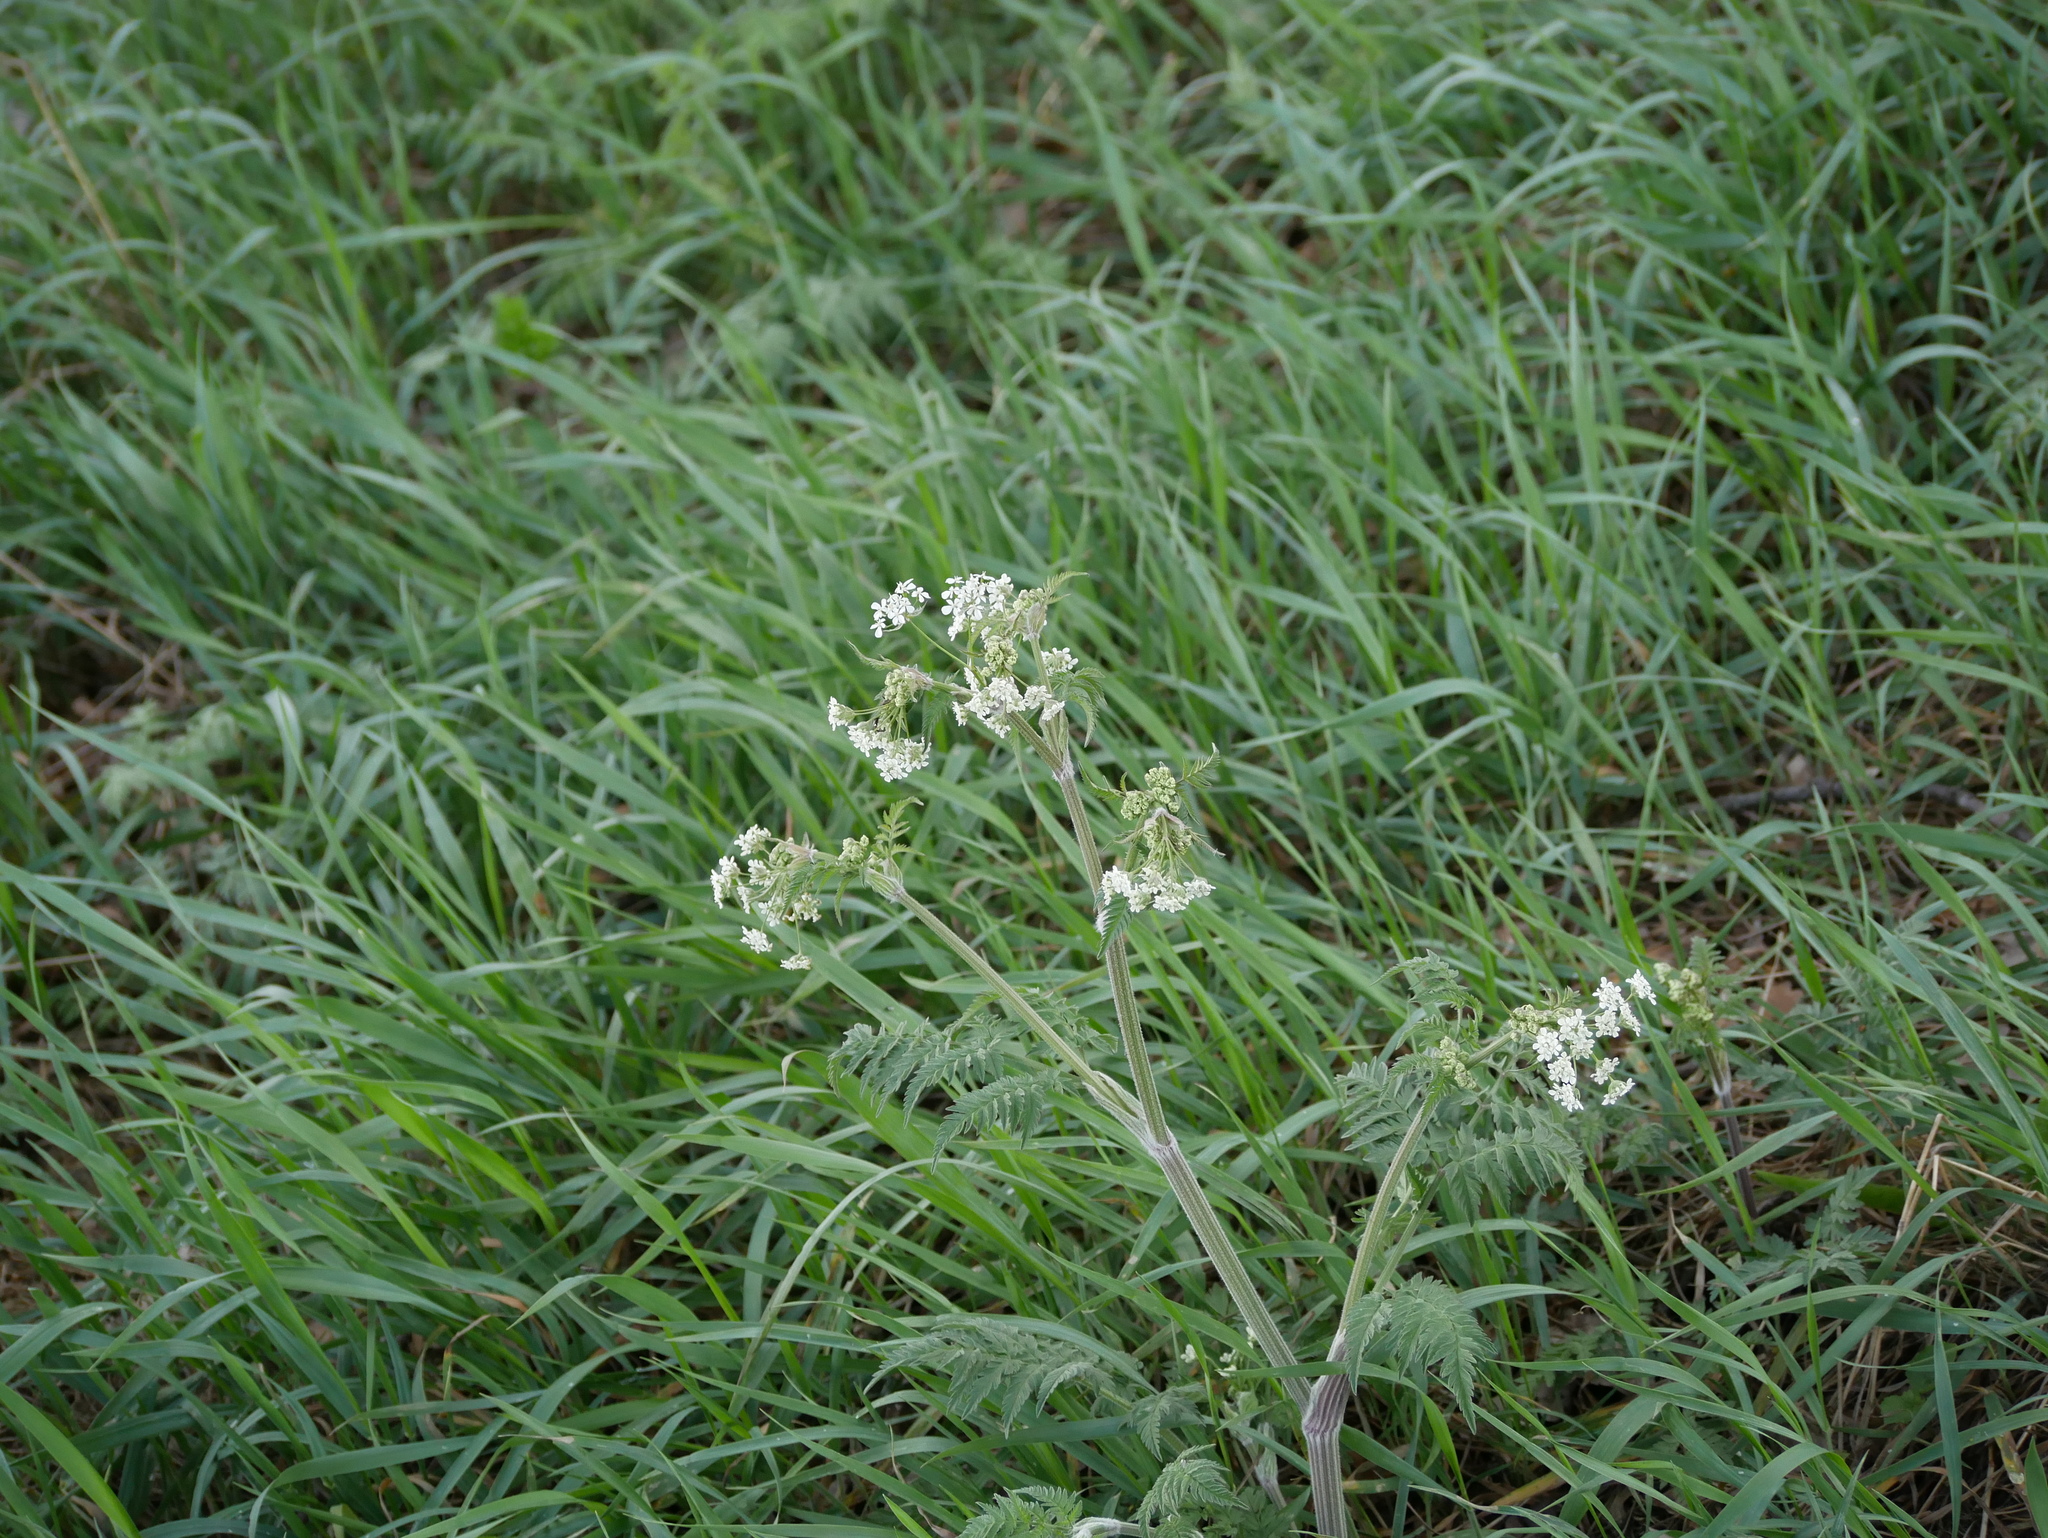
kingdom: Plantae
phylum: Tracheophyta
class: Magnoliopsida
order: Apiales
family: Apiaceae
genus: Anthriscus
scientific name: Anthriscus sylvestris
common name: Cow parsley
